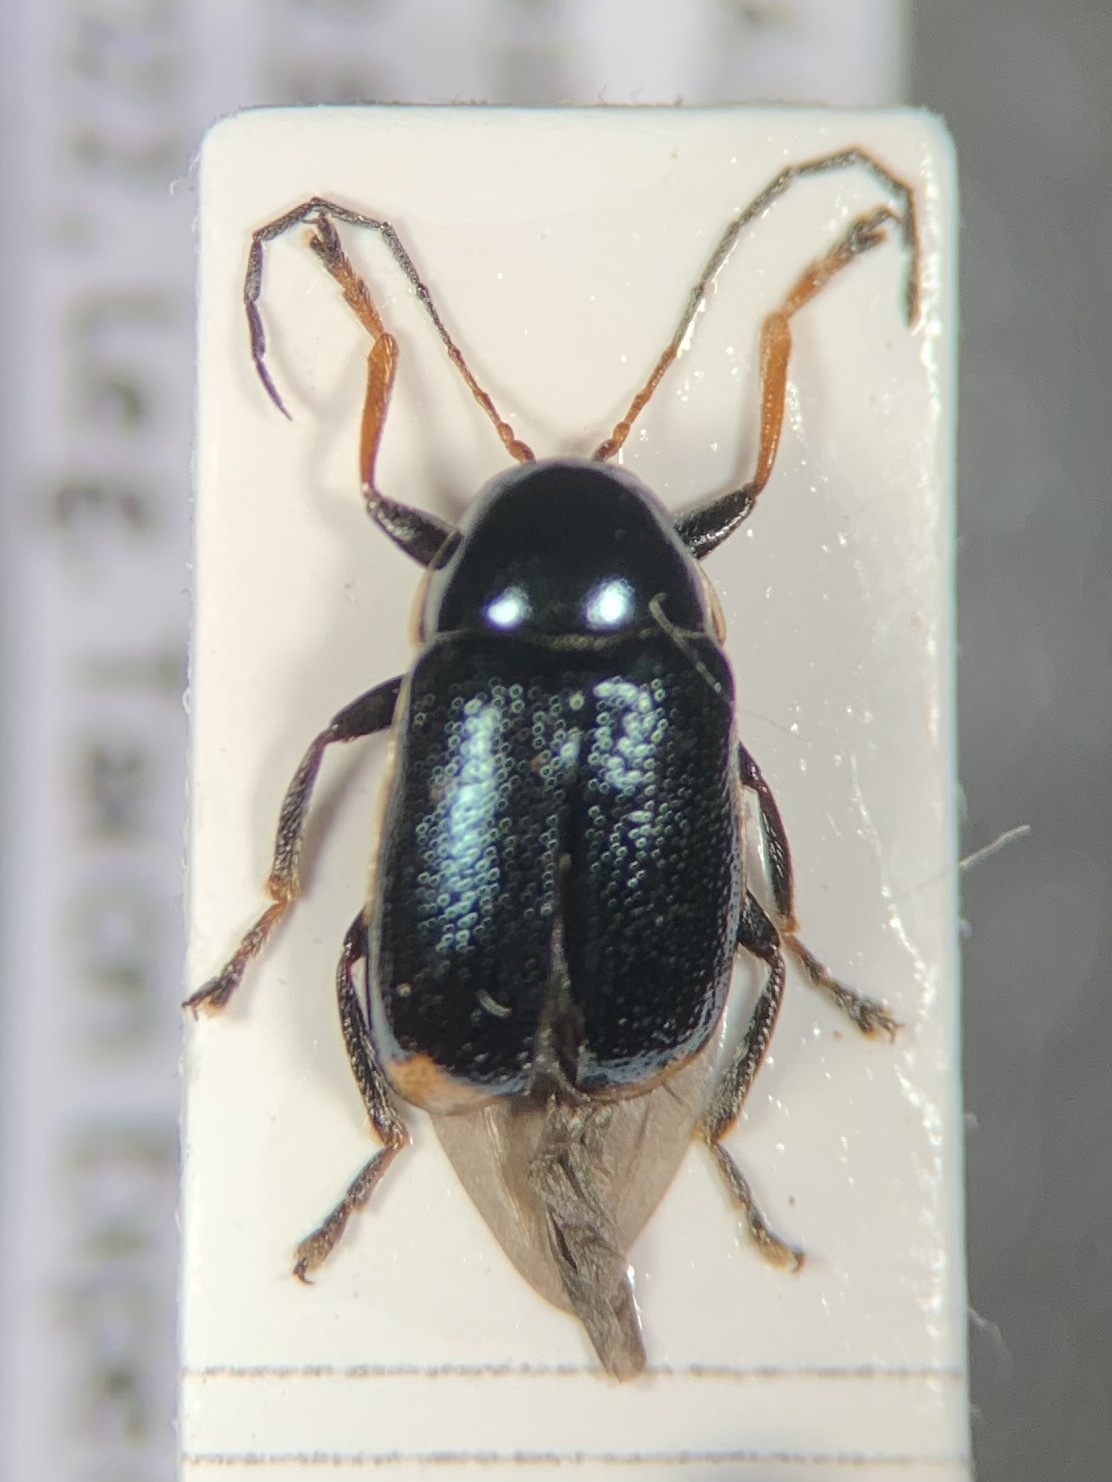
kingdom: Animalia
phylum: Arthropoda
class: Insecta
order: Coleoptera
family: Chrysomelidae
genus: Cryptocephalus
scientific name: Cryptocephalus renatae
